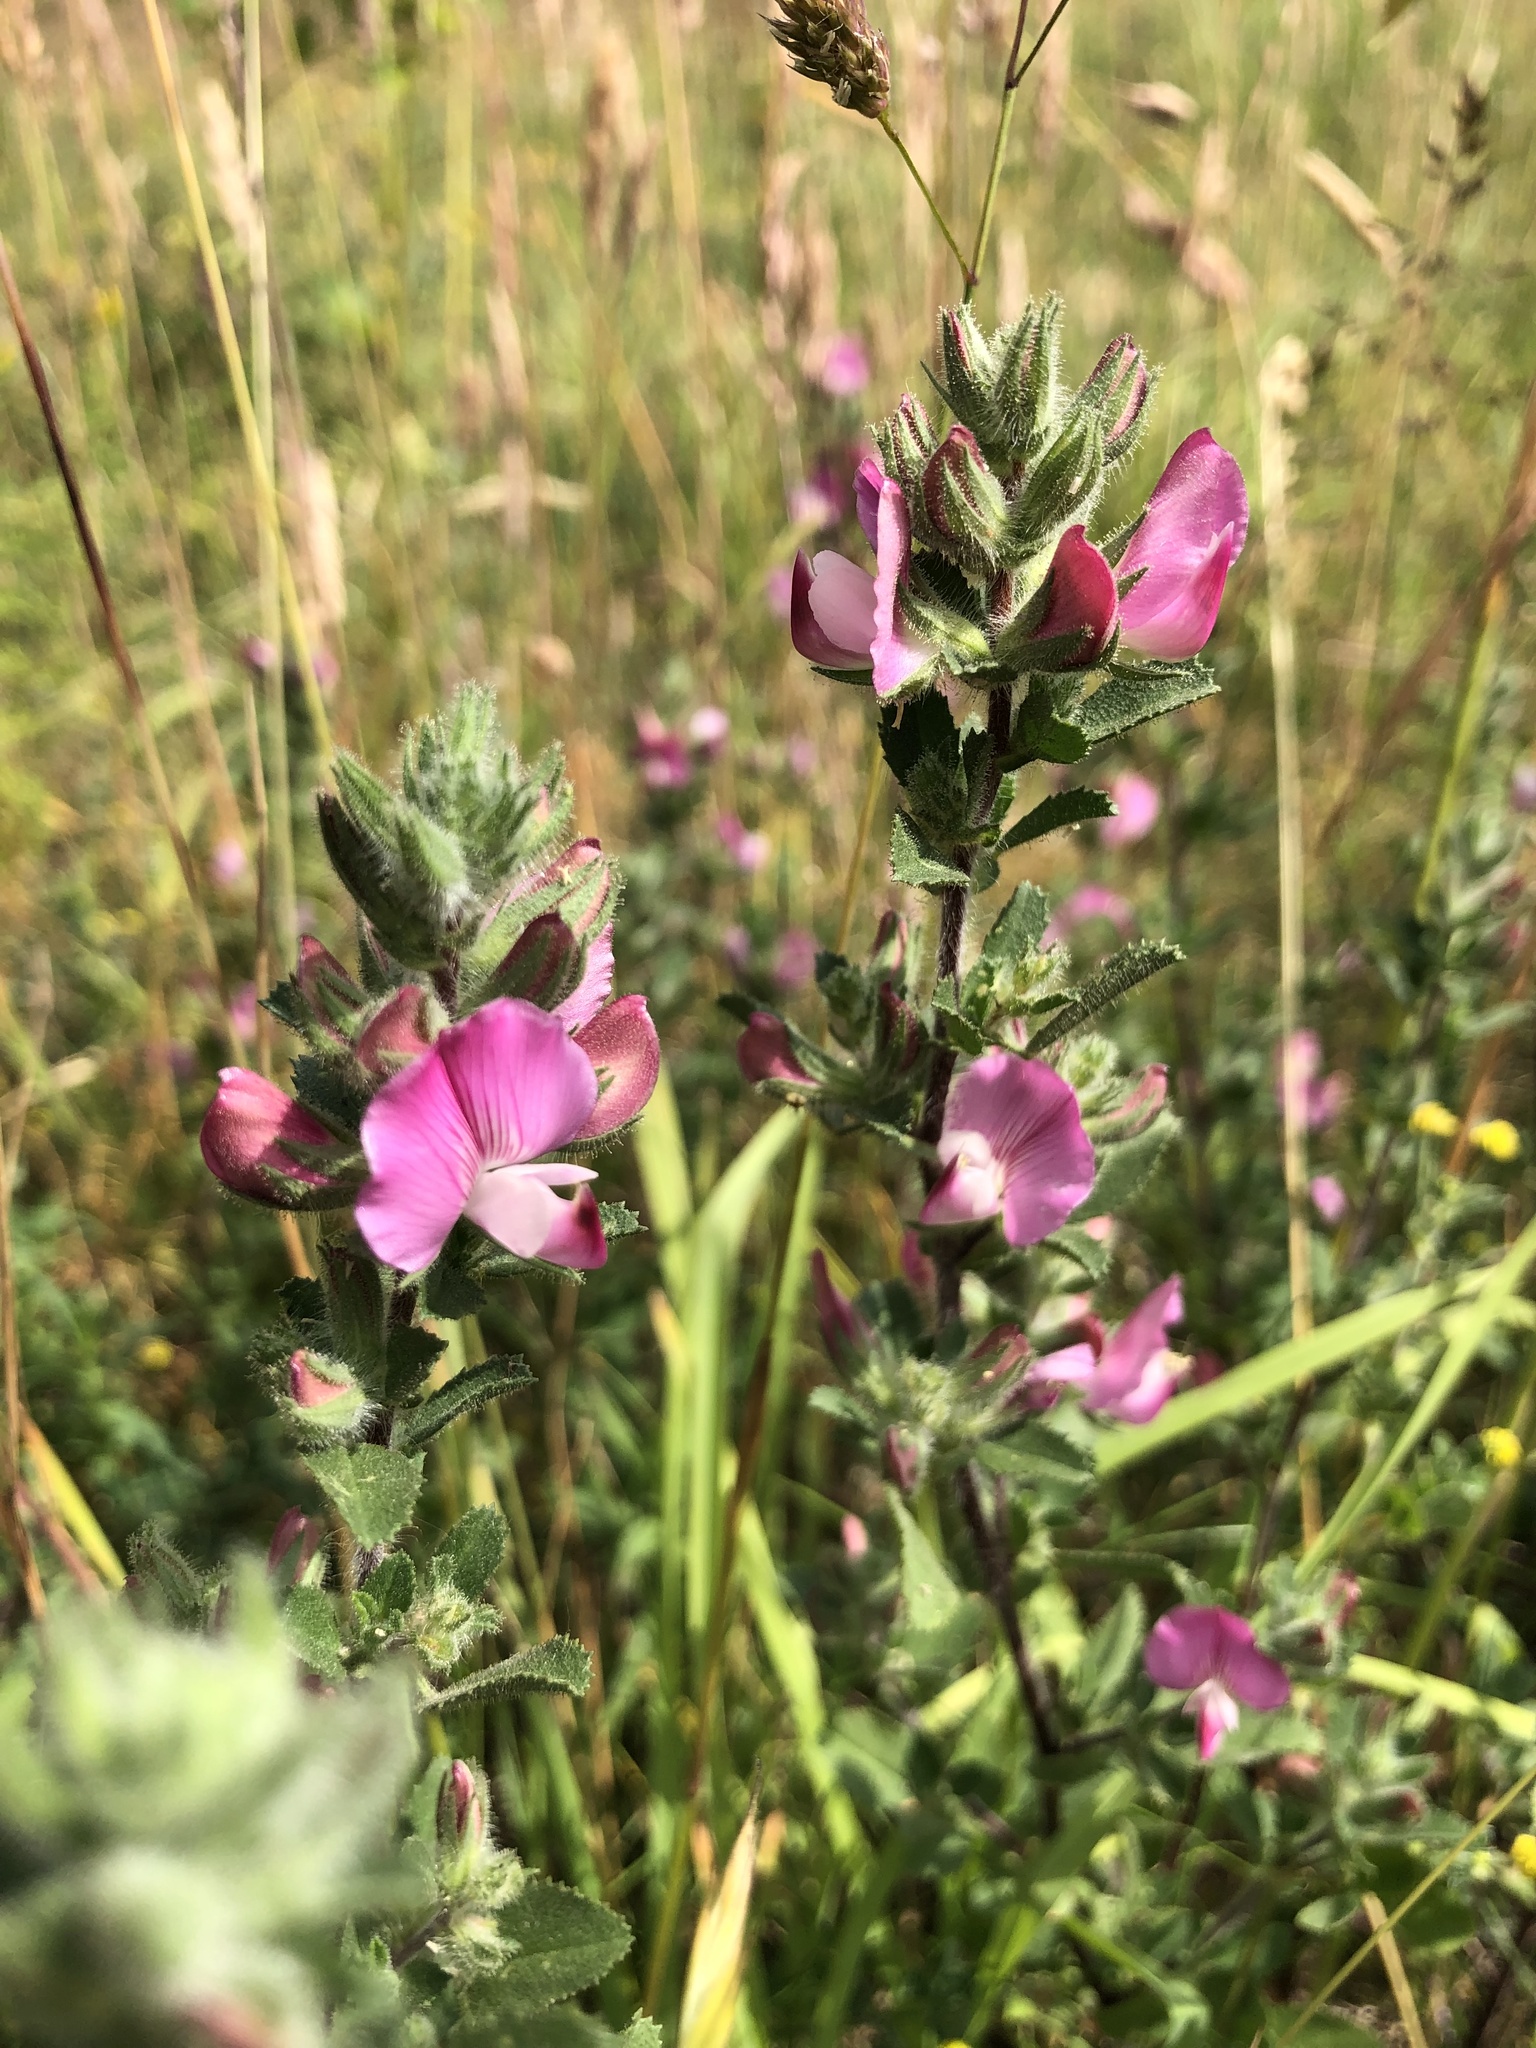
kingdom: Plantae
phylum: Tracheophyta
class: Magnoliopsida
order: Fabales
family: Fabaceae
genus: Ononis
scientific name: Ononis spinosa
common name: Spiny restharrow
